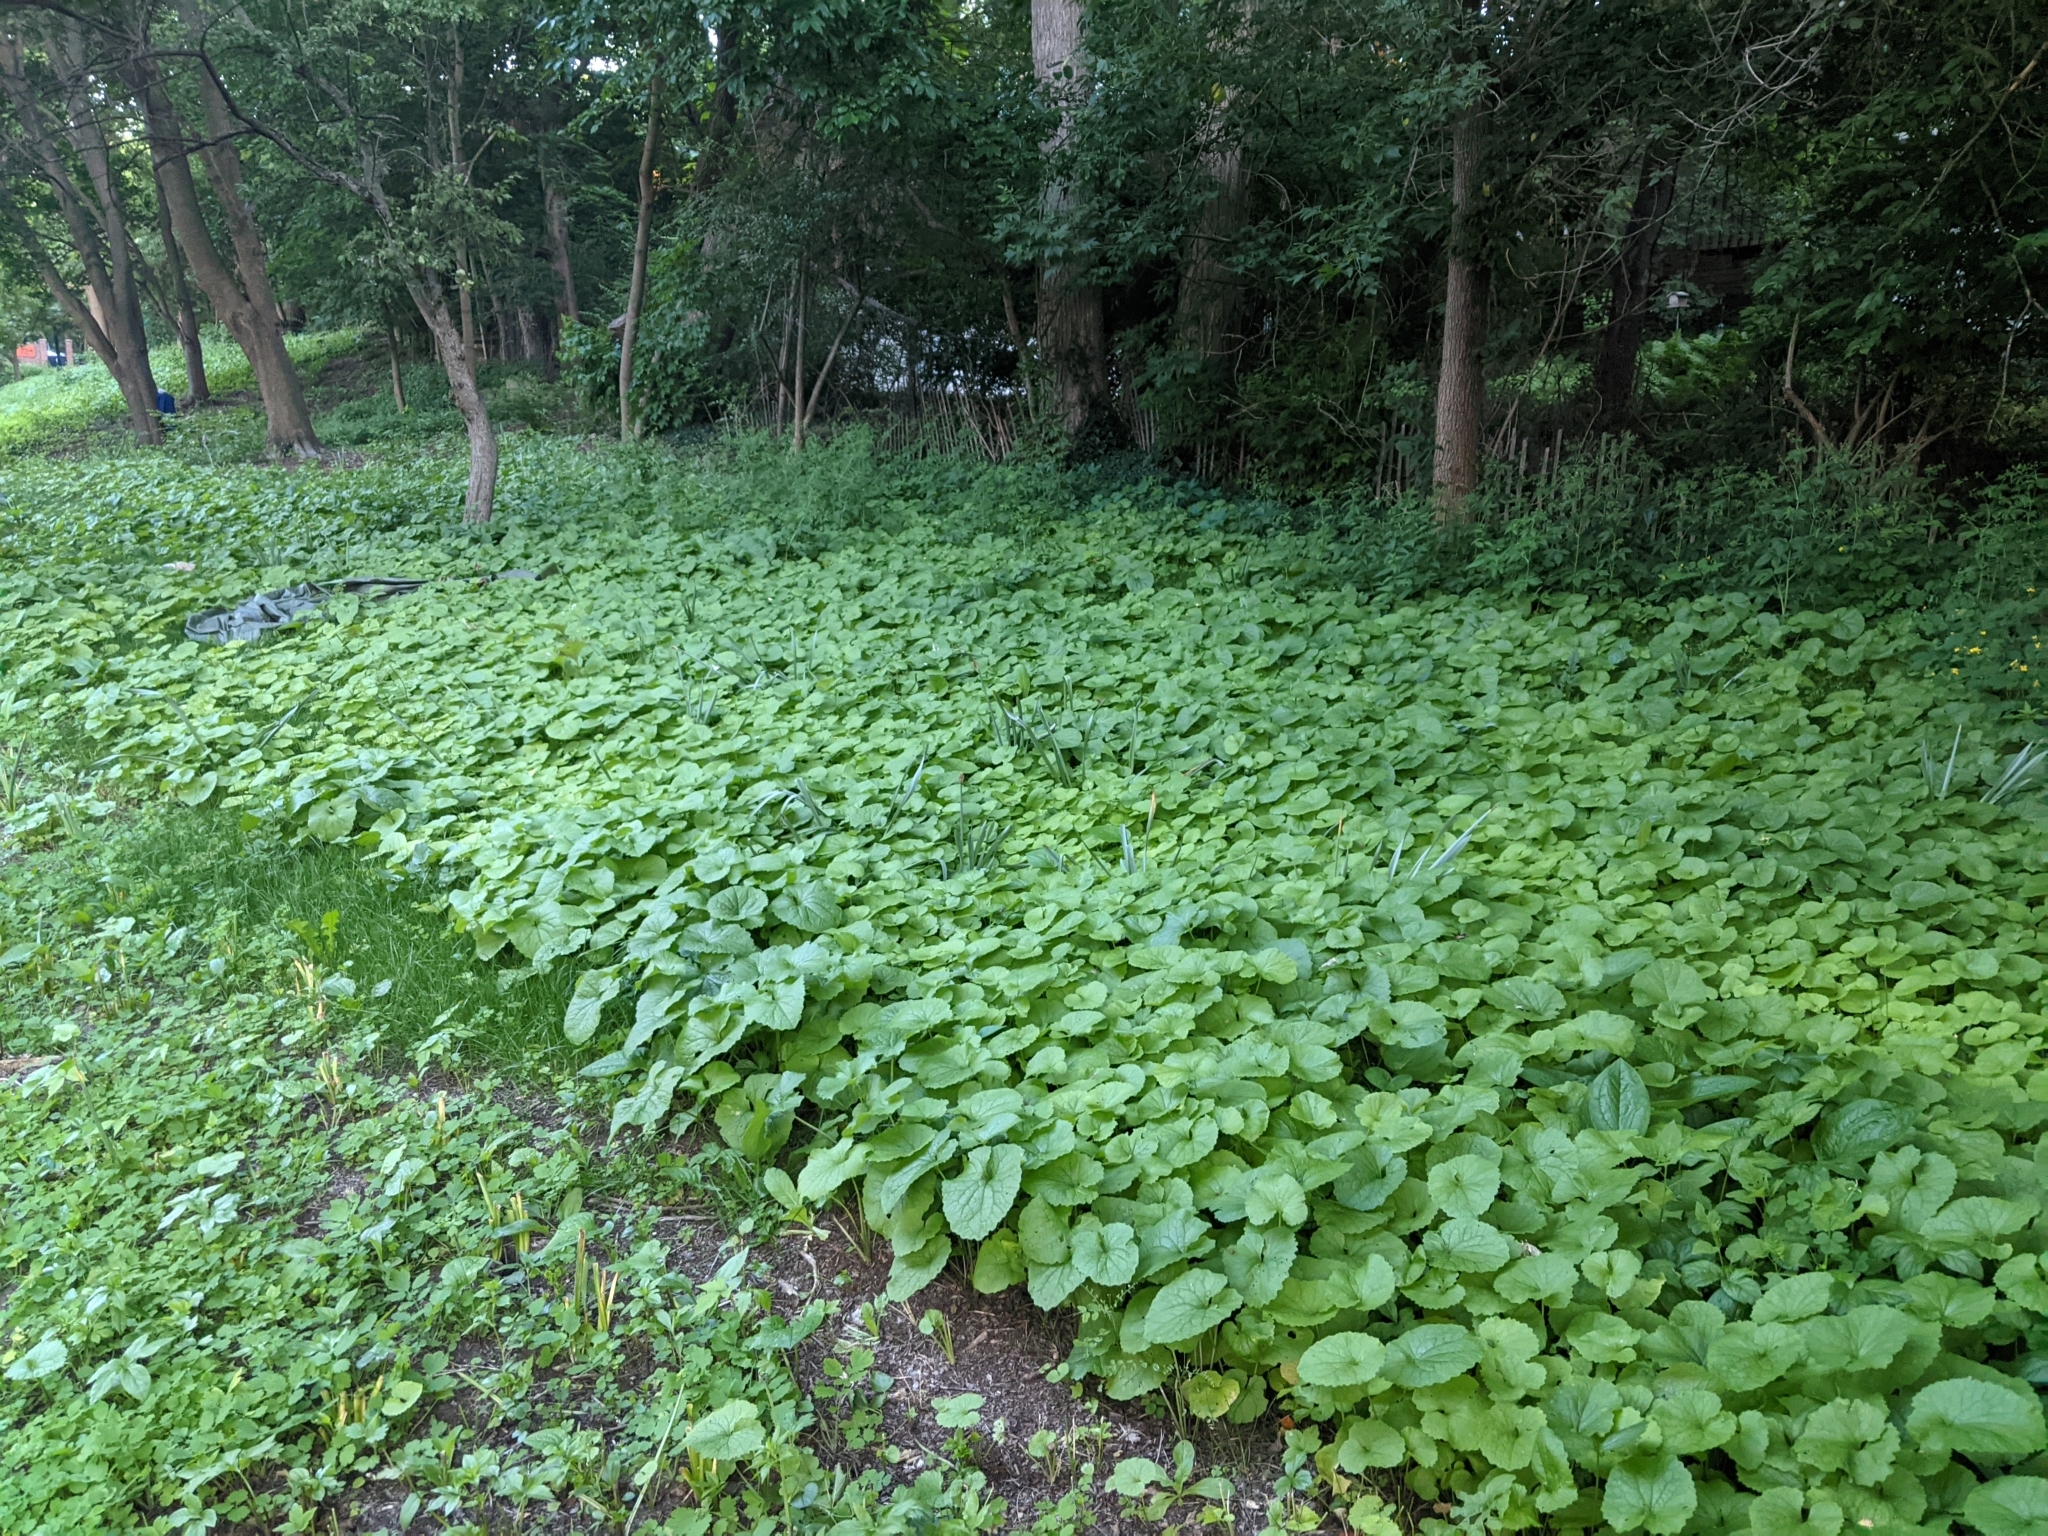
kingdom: Plantae
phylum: Tracheophyta
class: Magnoliopsida
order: Brassicales
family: Brassicaceae
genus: Alliaria
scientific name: Alliaria petiolata
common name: Garlic mustard
